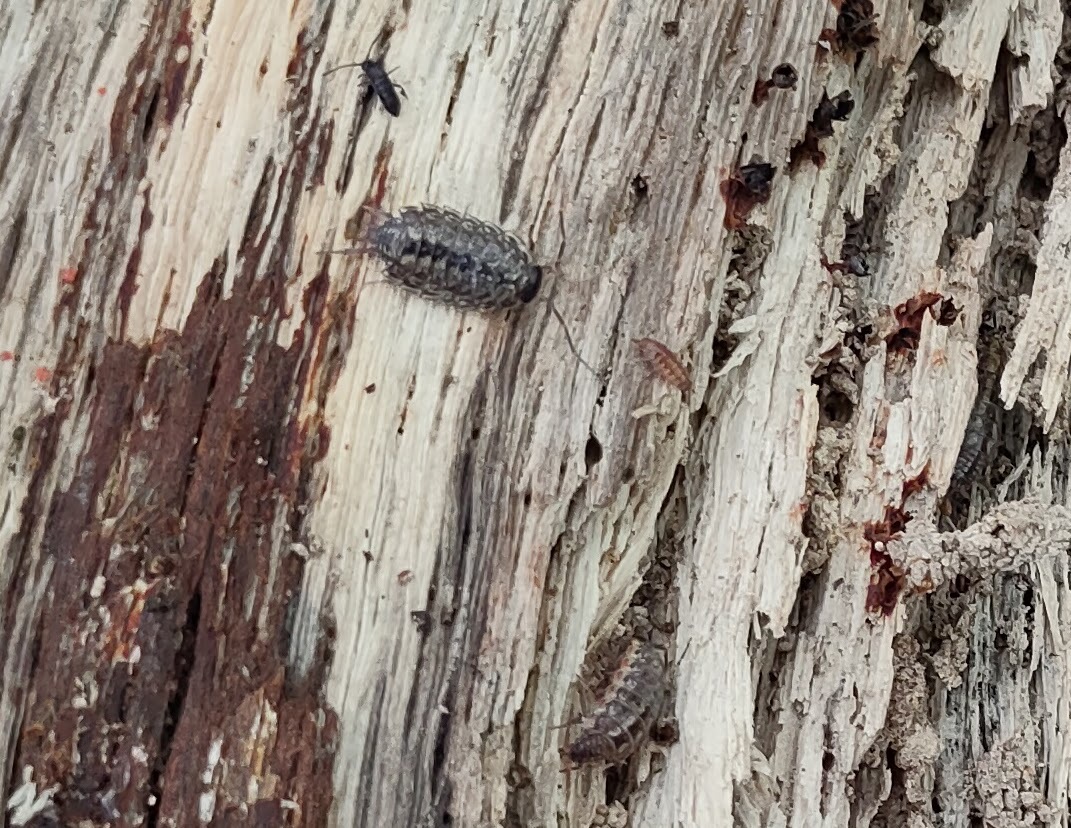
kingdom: Animalia
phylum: Arthropoda
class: Malacostraca
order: Isopoda
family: Philosciidae
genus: Philoscia
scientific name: Philoscia muscorum
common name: Common striped woodlouse
